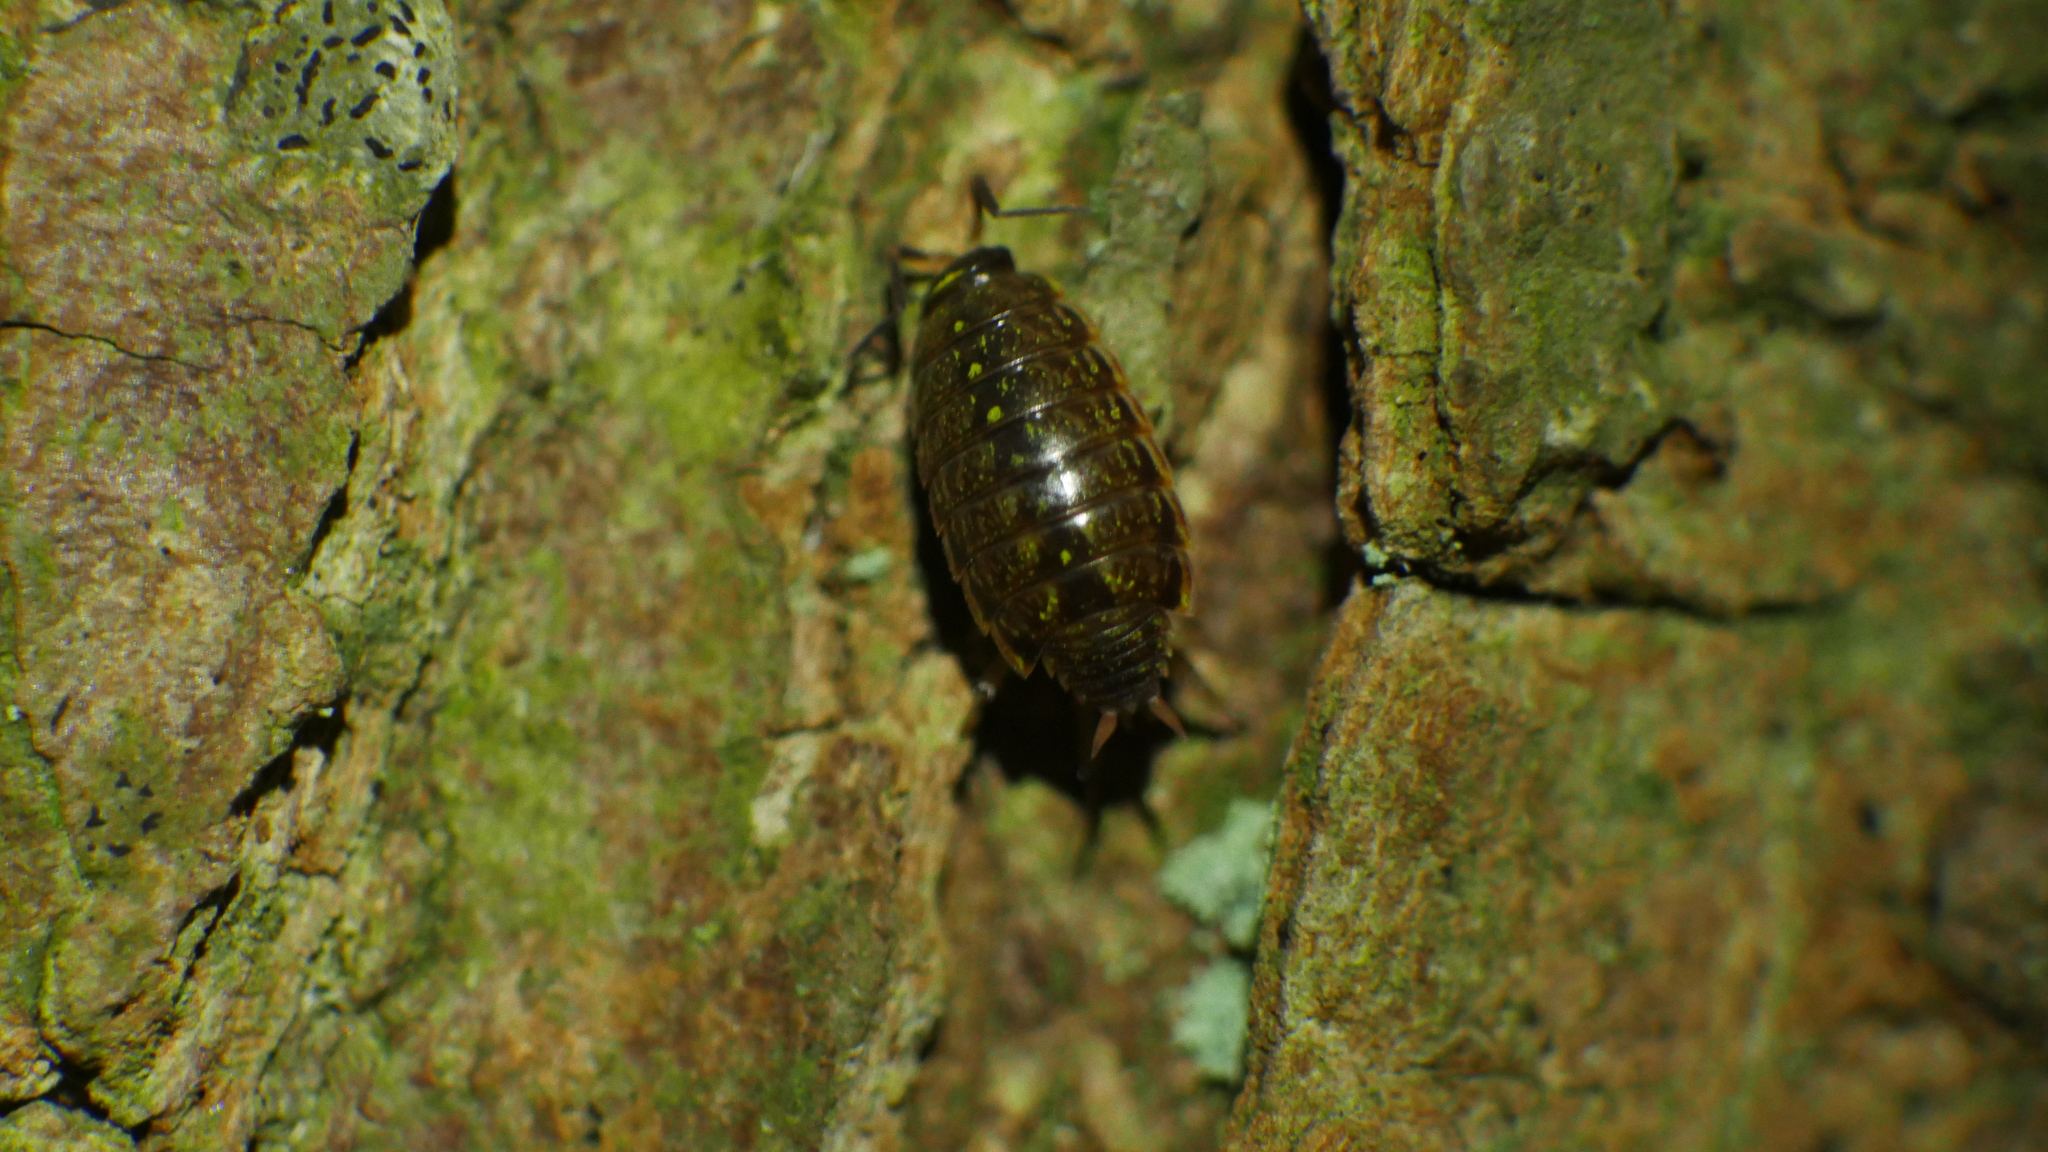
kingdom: Animalia
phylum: Arthropoda
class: Malacostraca
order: Isopoda
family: Philosciidae
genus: Philoscia
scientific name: Philoscia muscorum
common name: Common striped woodlouse
